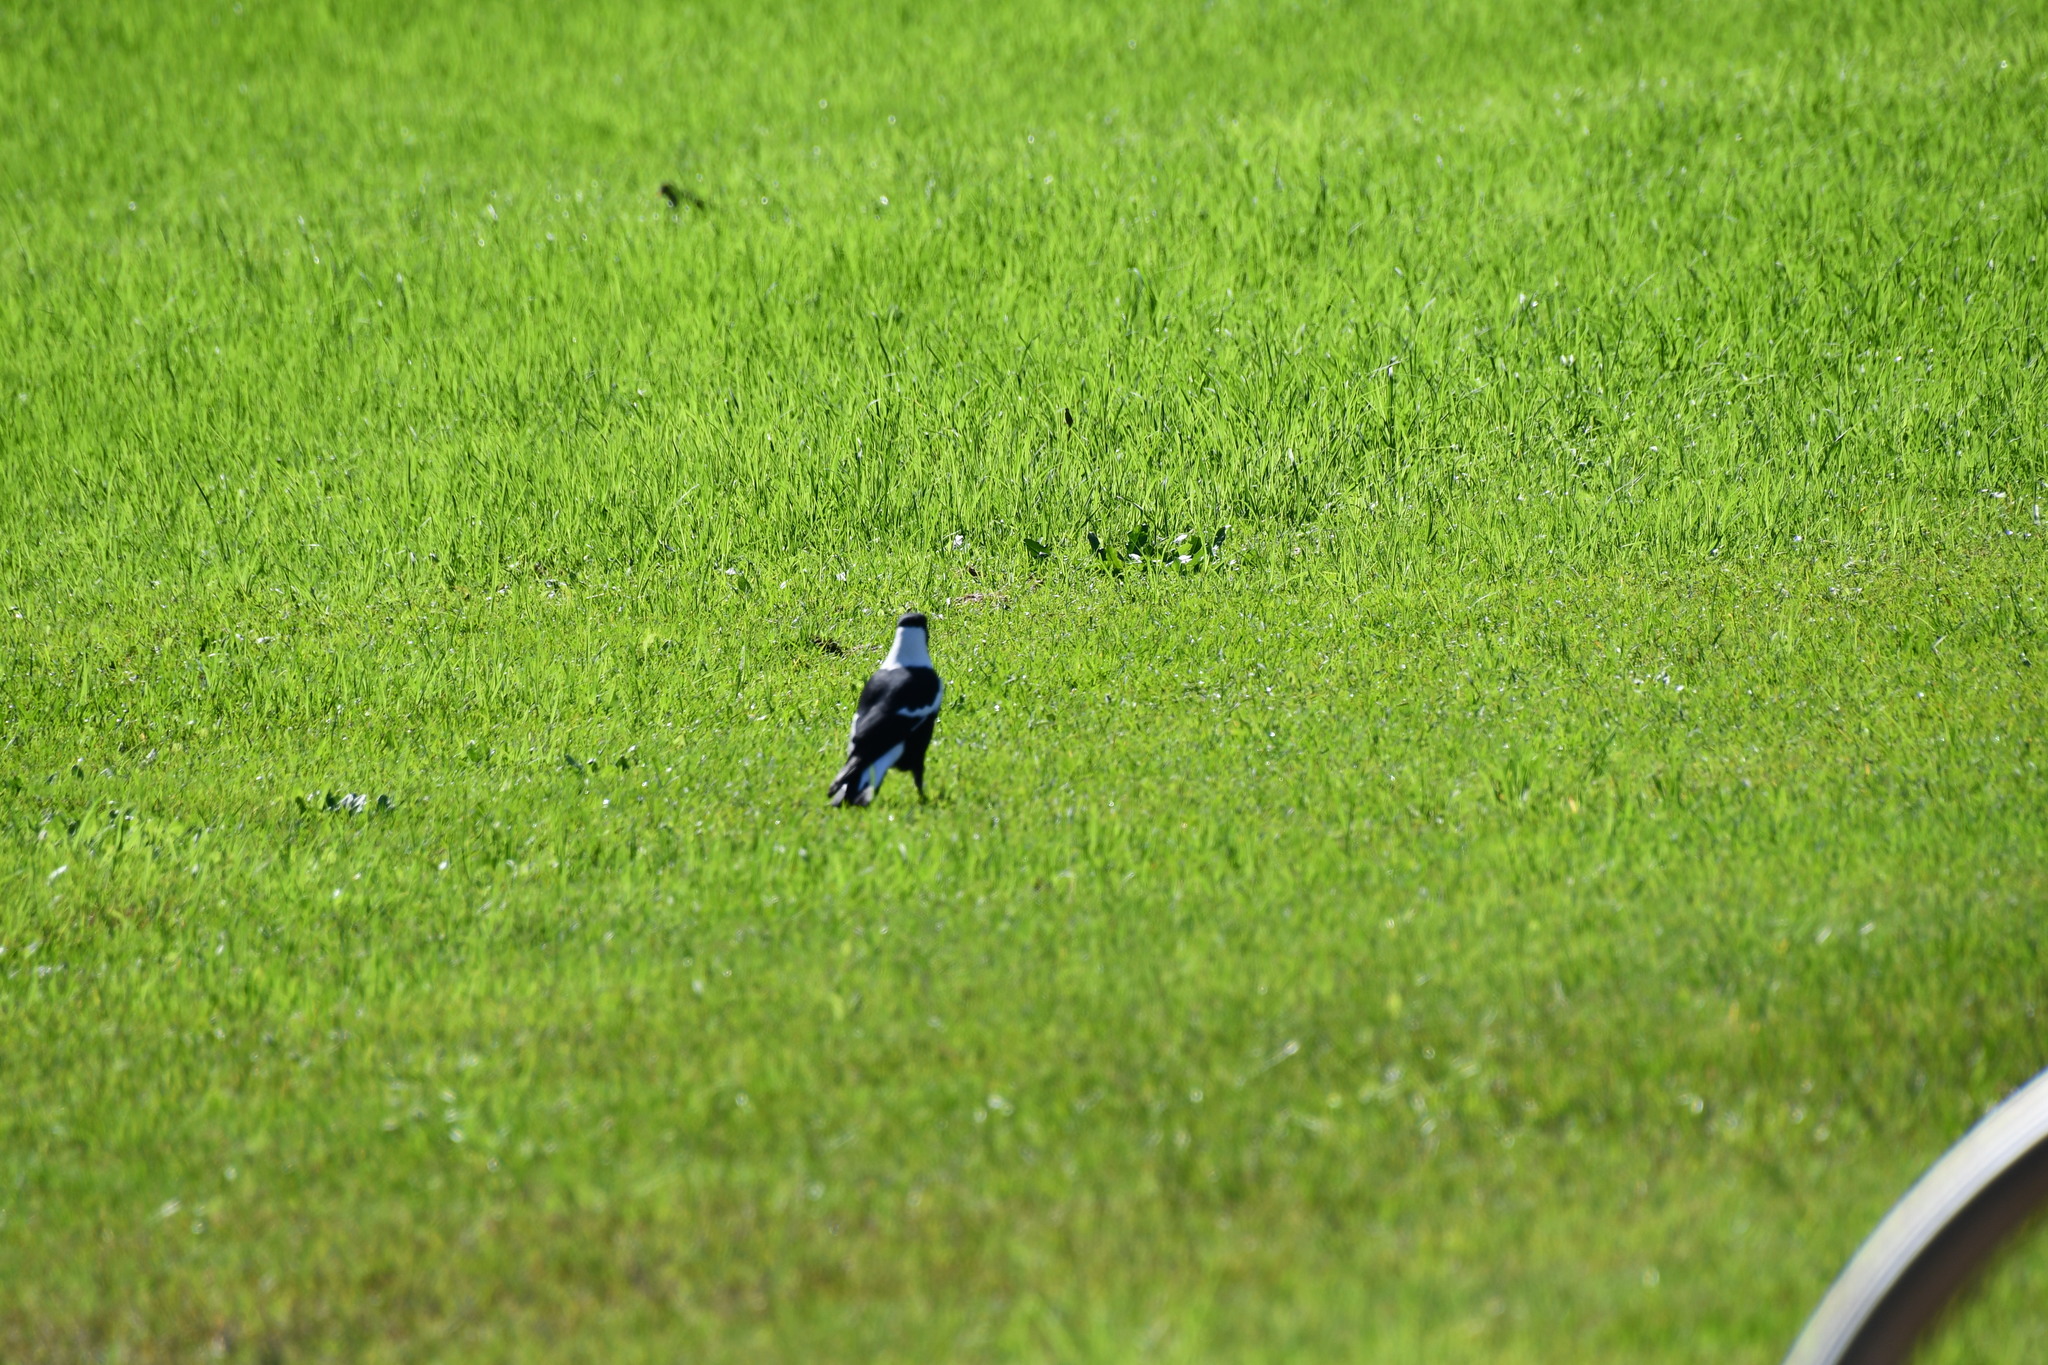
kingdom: Animalia
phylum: Chordata
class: Aves
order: Passeriformes
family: Cracticidae
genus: Gymnorhina
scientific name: Gymnorhina tibicen
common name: Australian magpie
